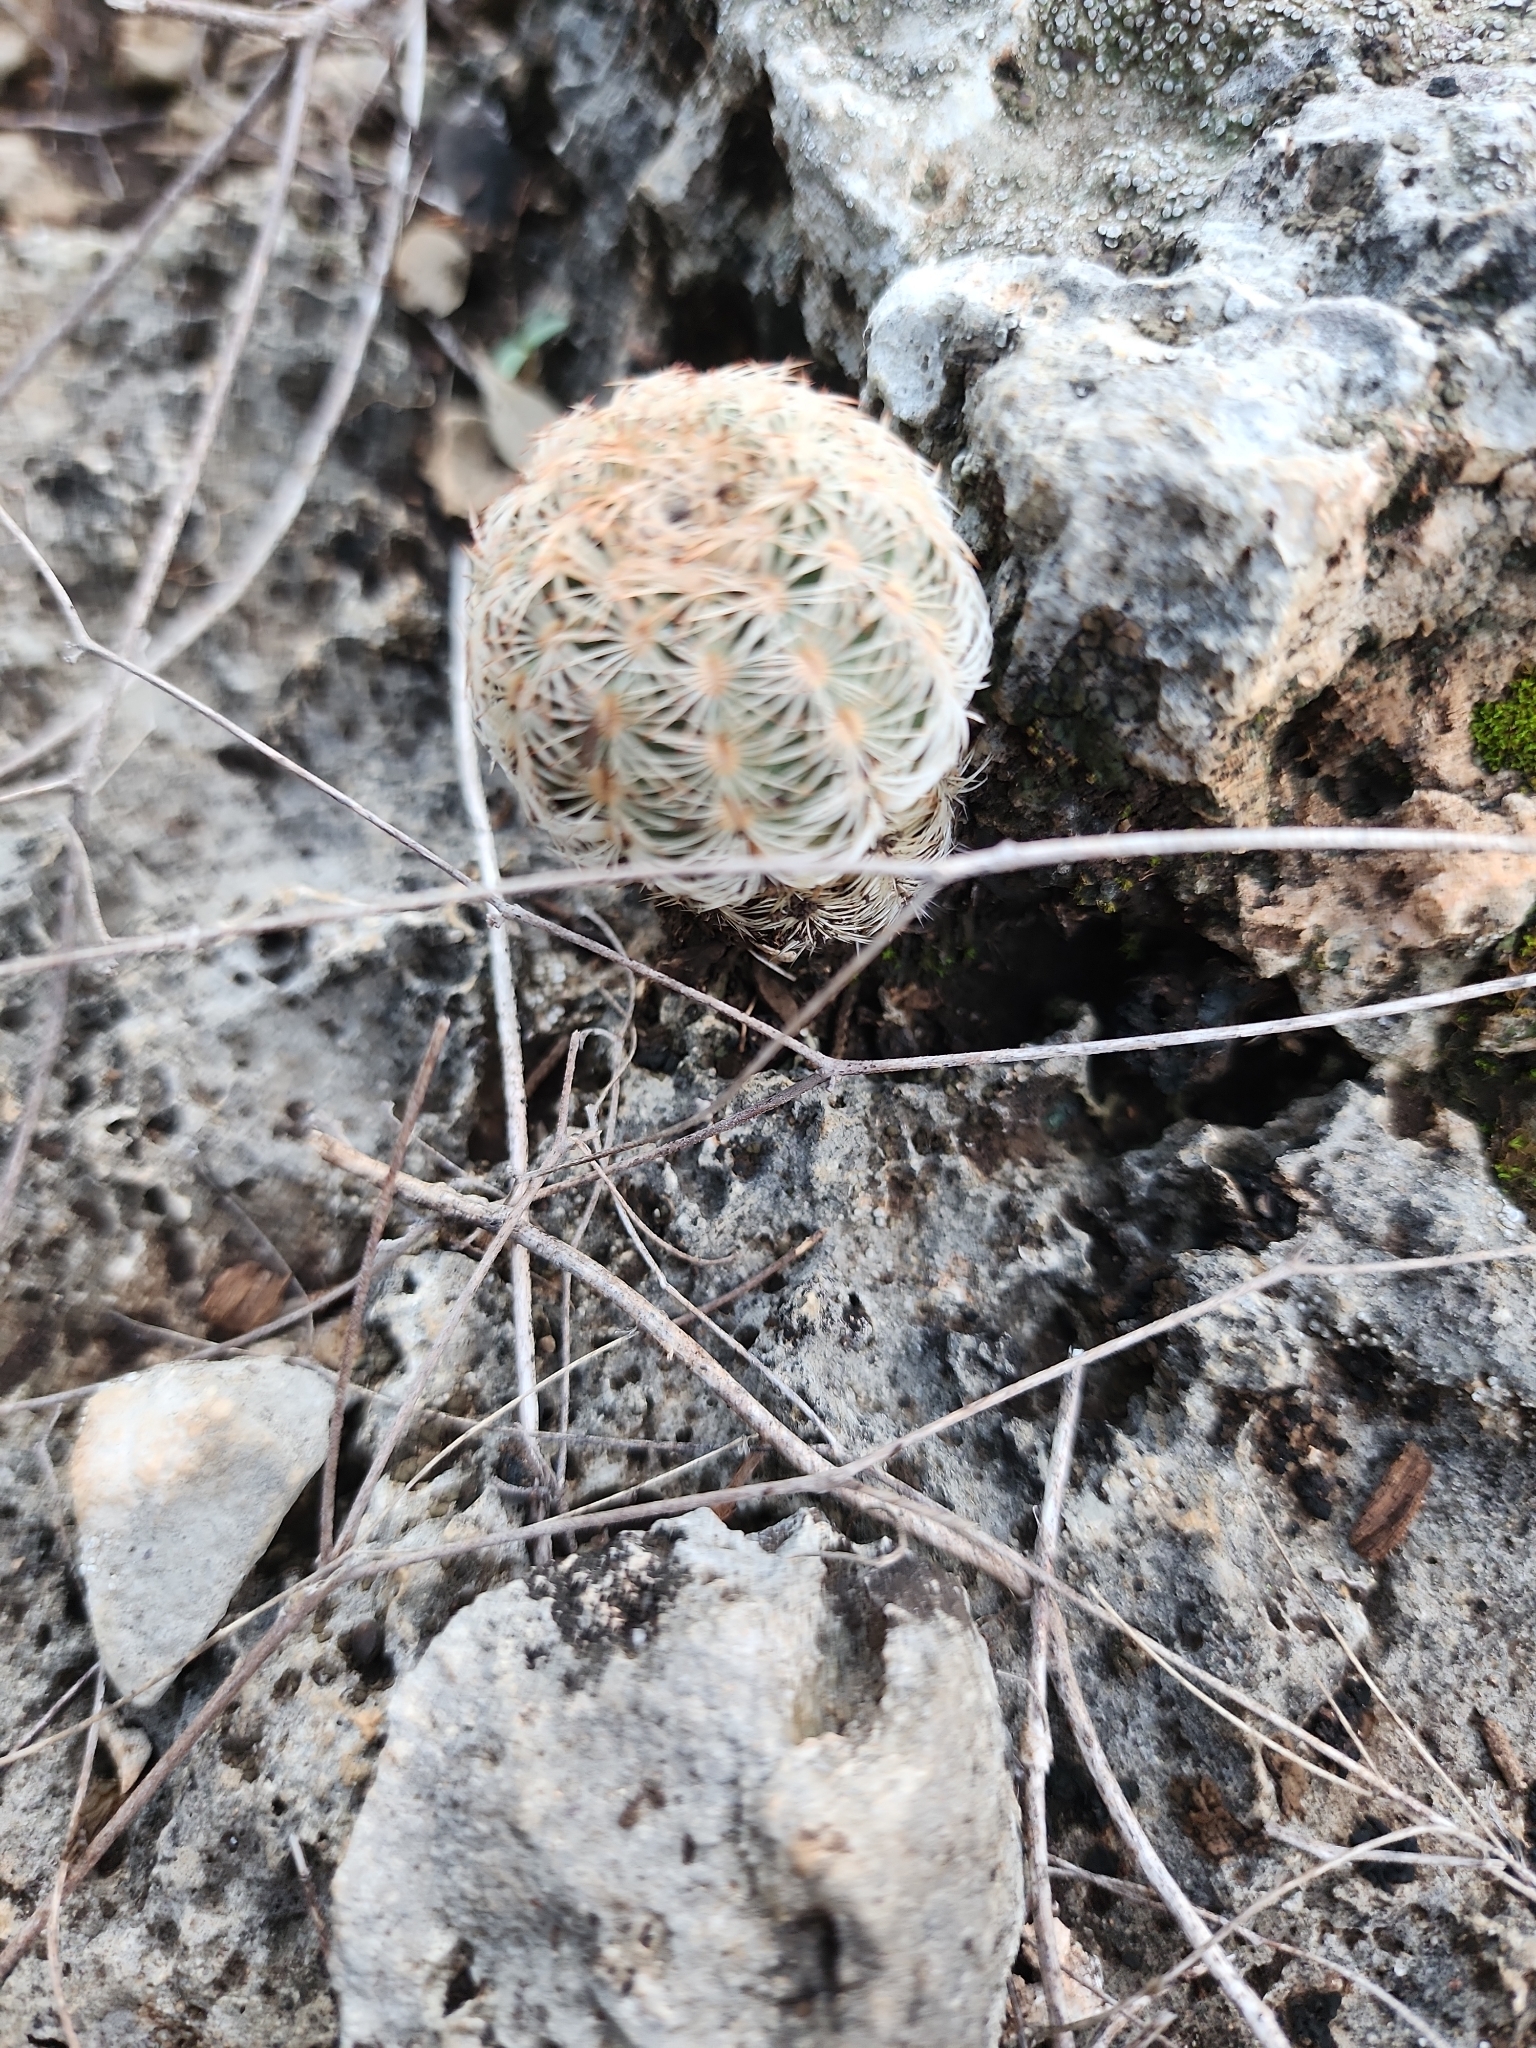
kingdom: Plantae
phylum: Tracheophyta
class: Magnoliopsida
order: Caryophyllales
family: Cactaceae
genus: Echinocereus
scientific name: Echinocereus reichenbachii
